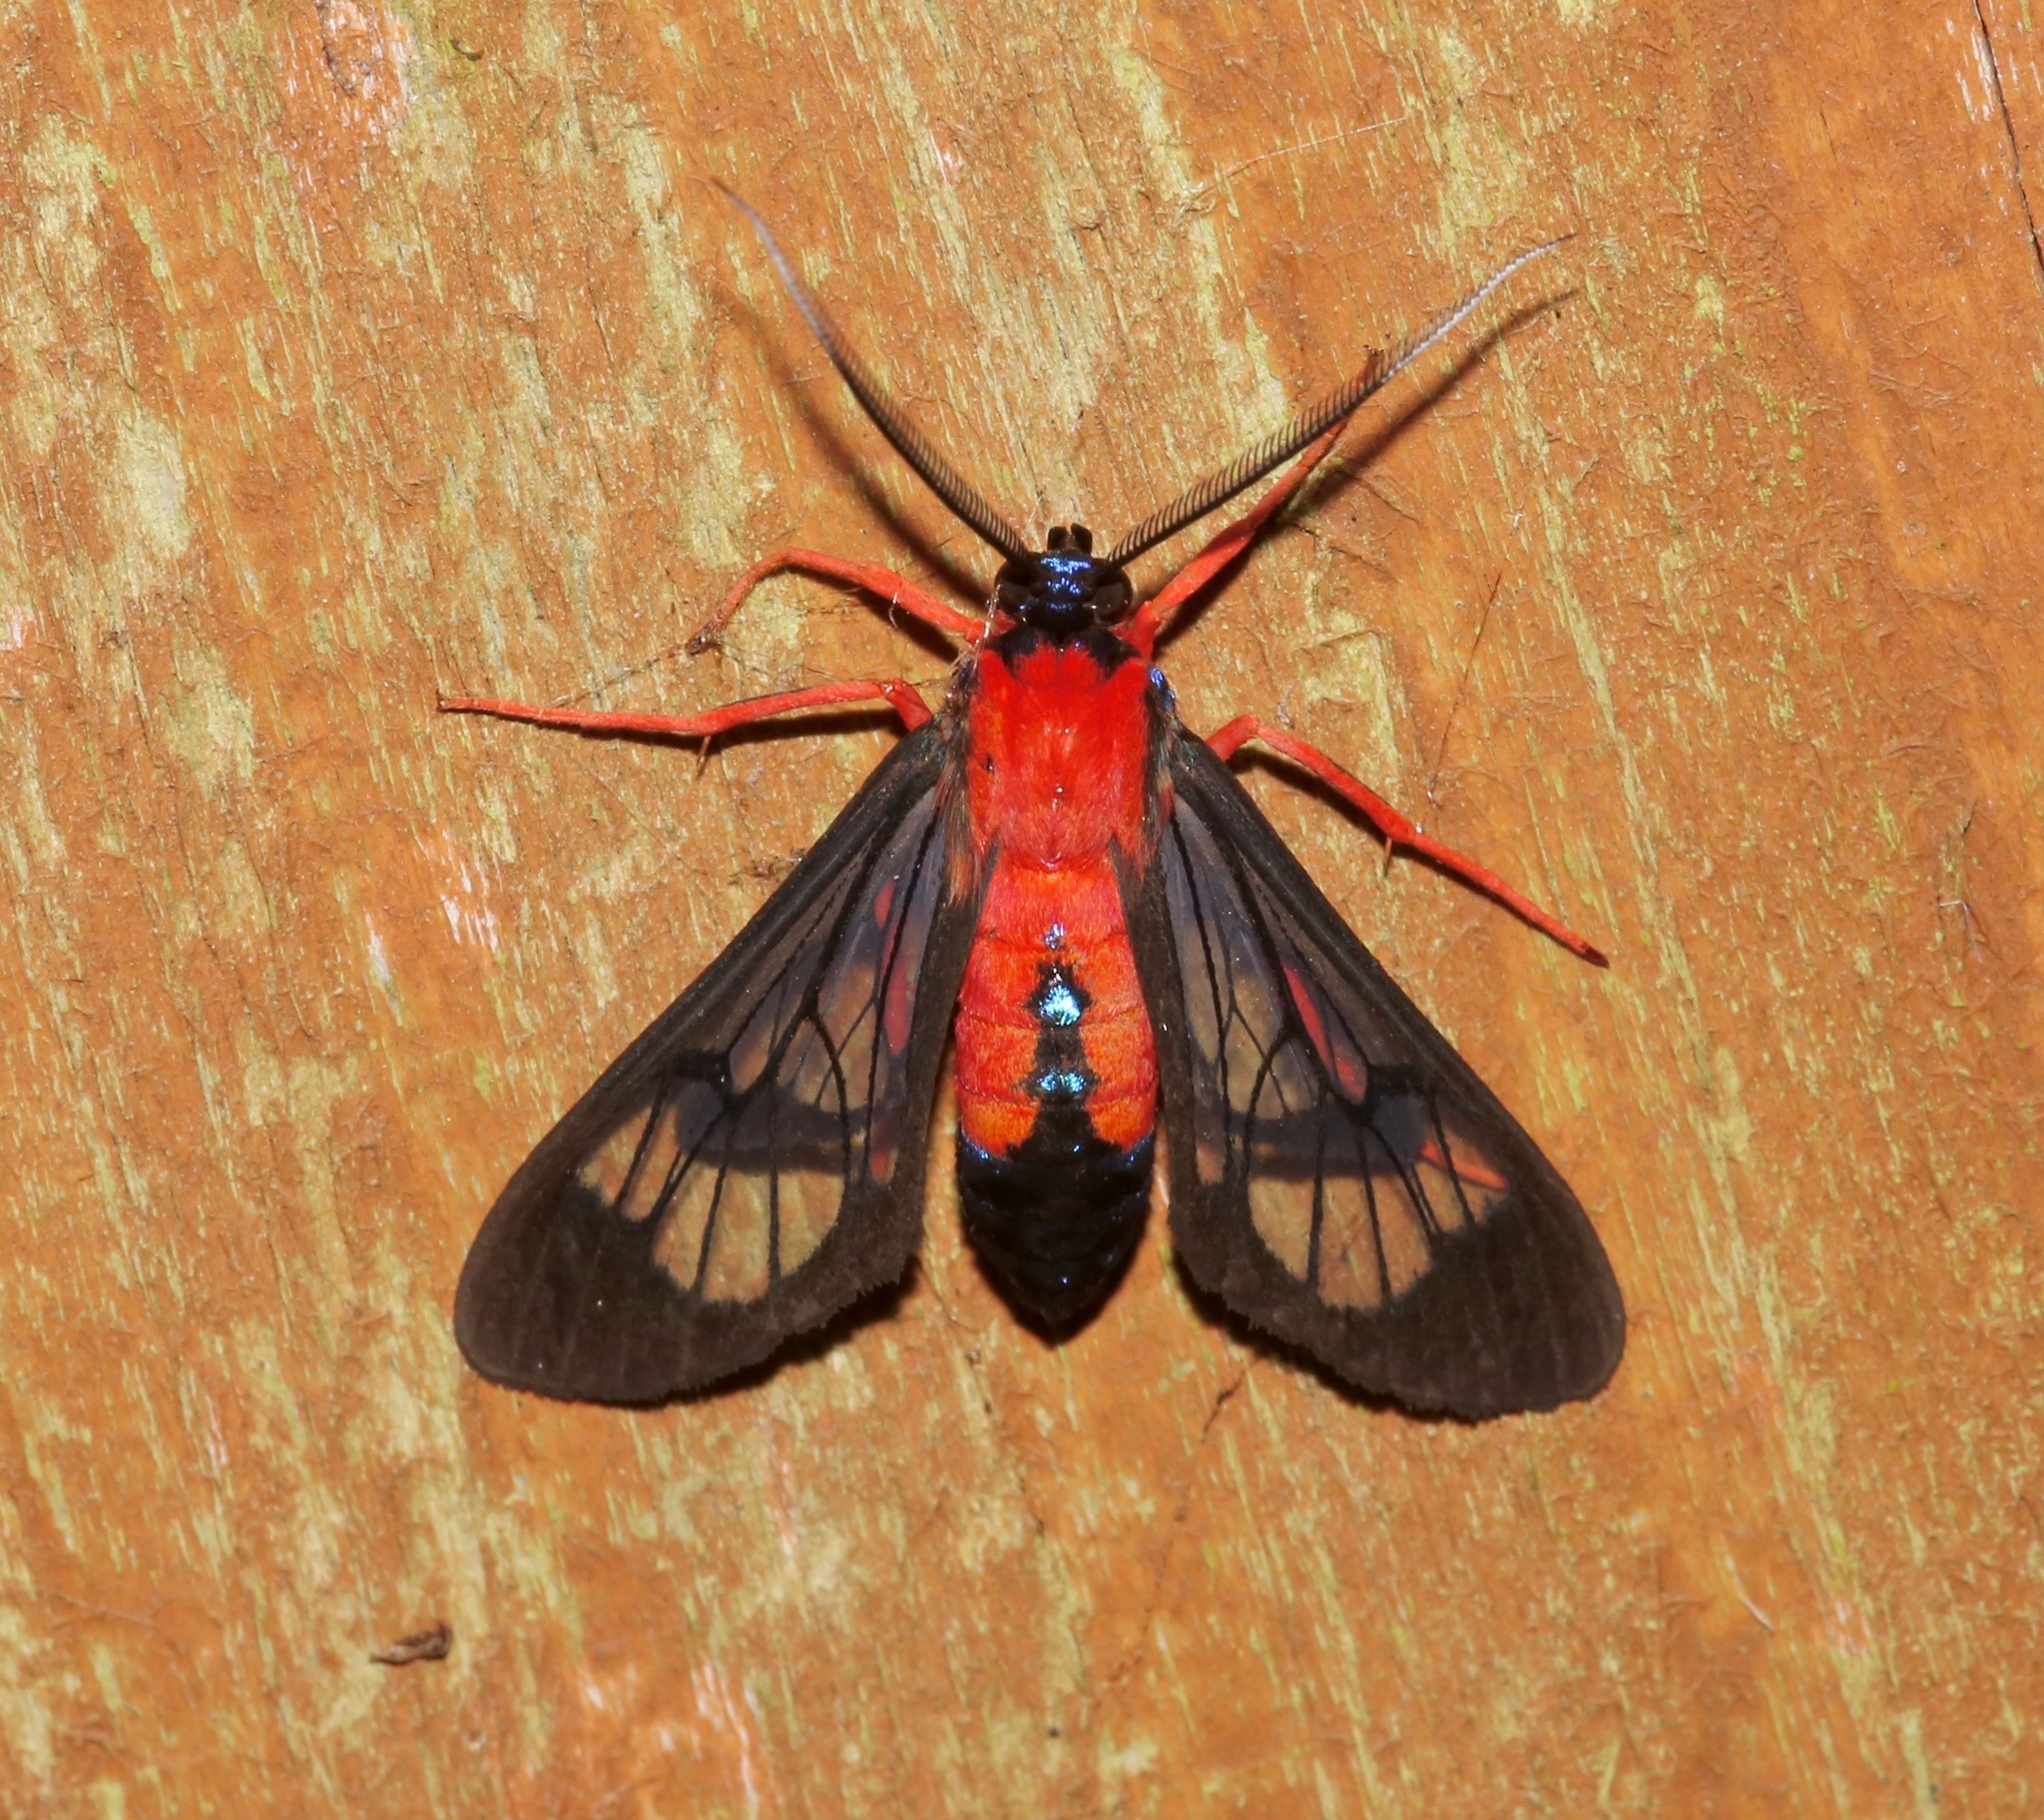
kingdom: Animalia
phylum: Arthropoda
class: Insecta
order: Lepidoptera
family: Erebidae
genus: Cosmosoma
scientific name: Cosmosoma myrodora
